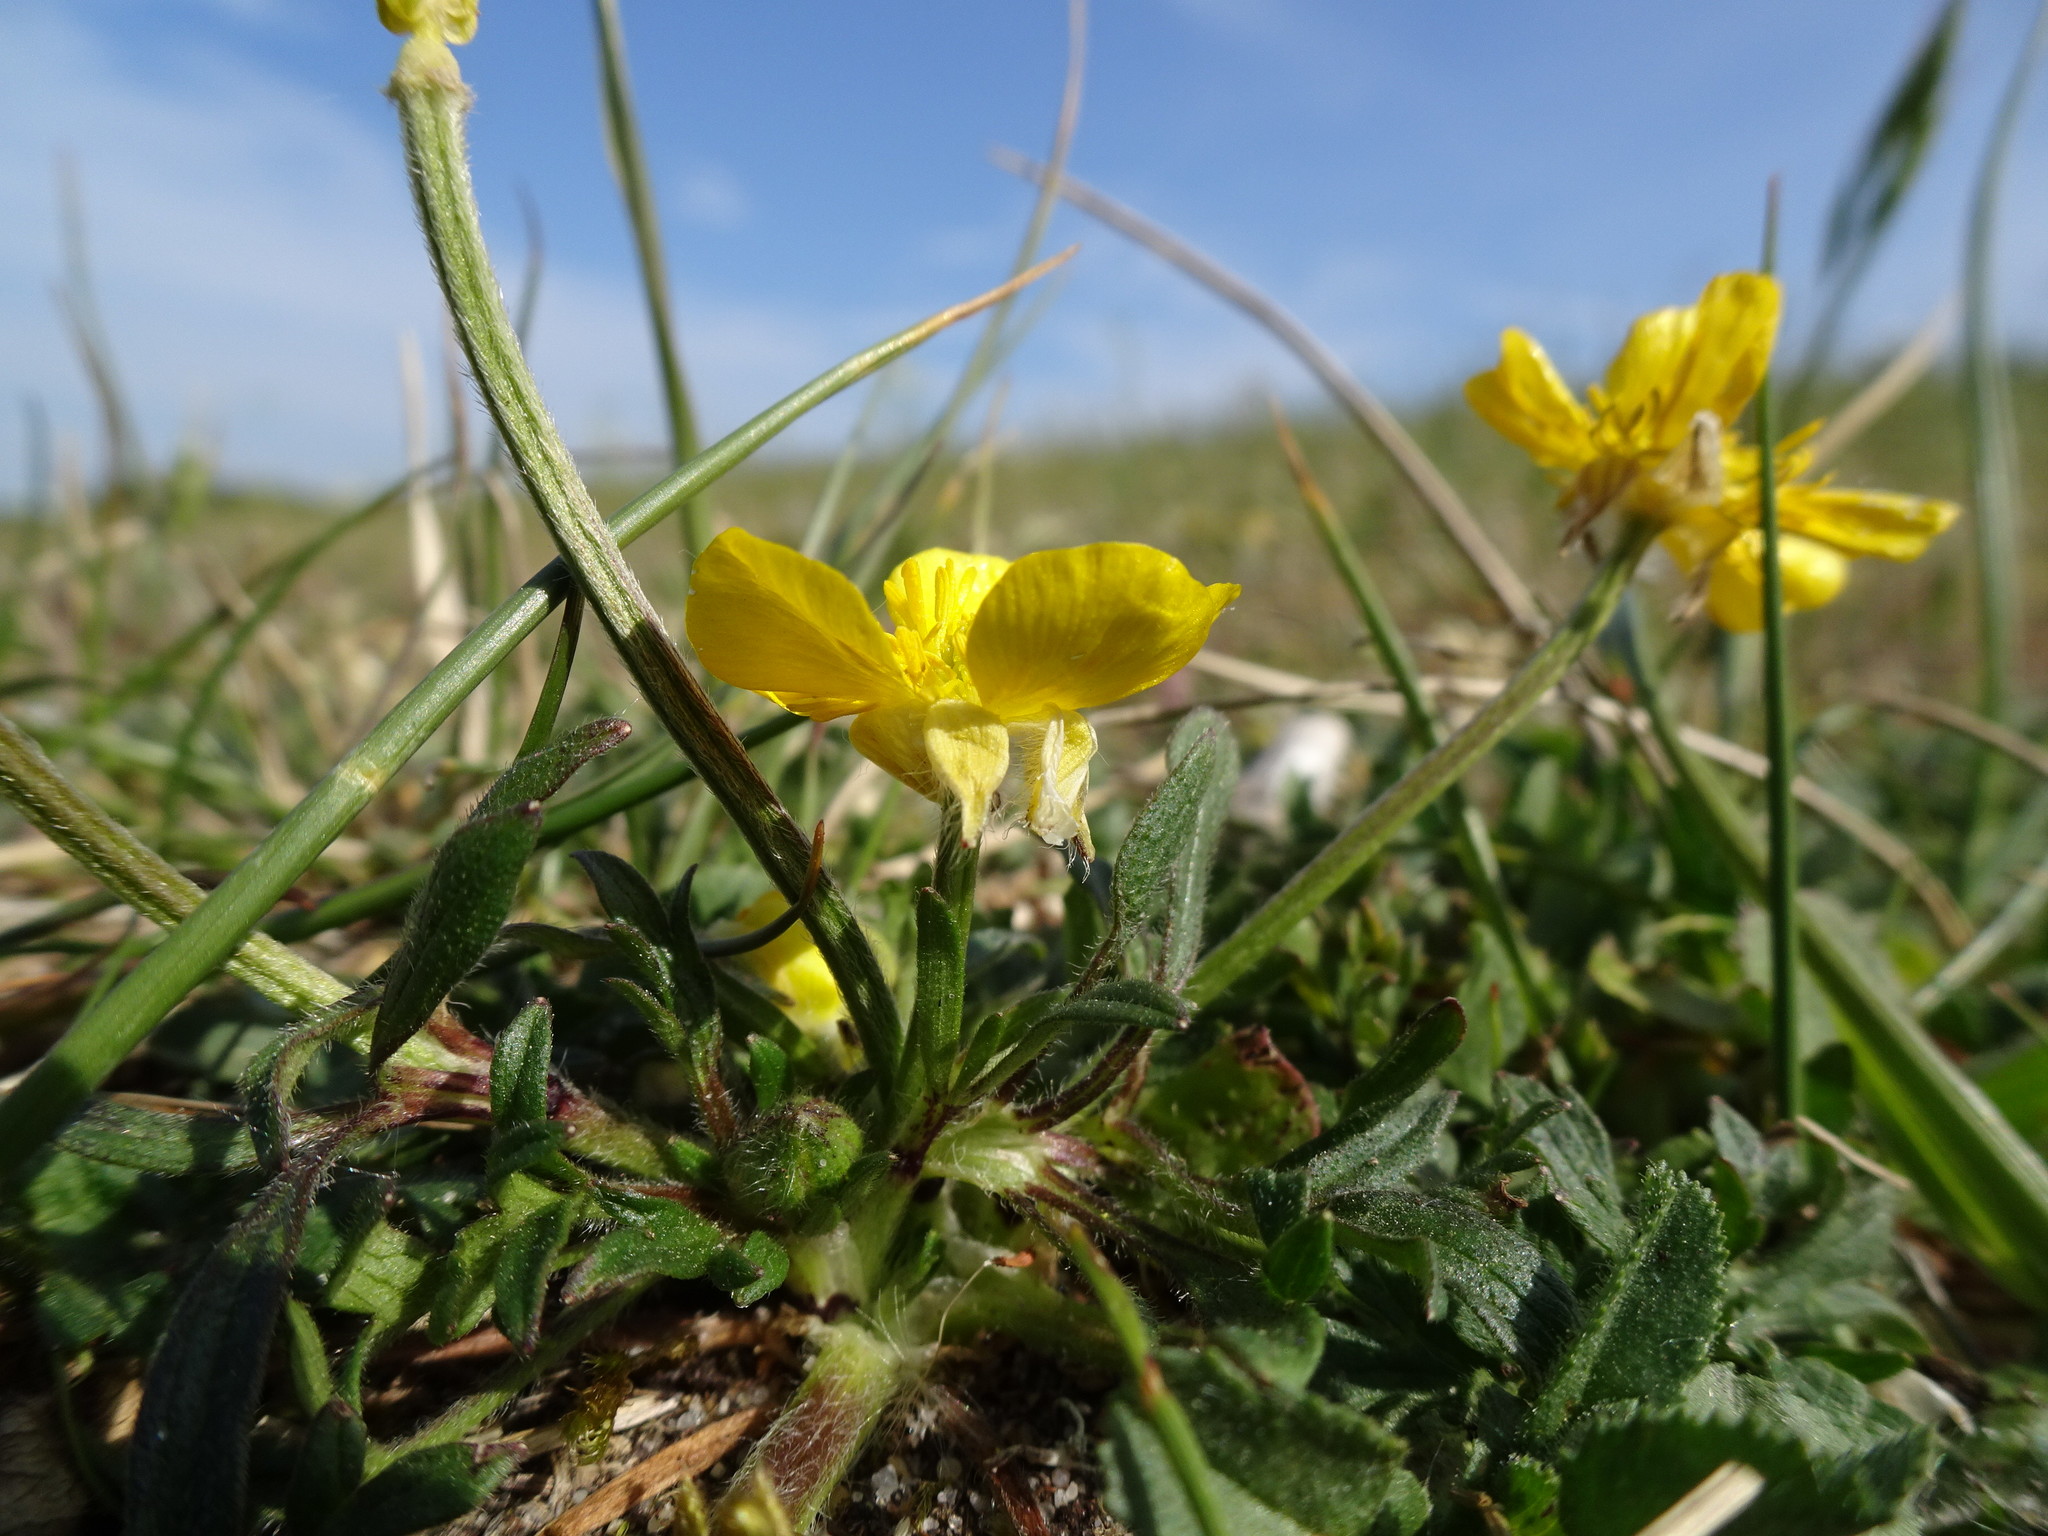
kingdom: Plantae
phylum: Tracheophyta
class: Magnoliopsida
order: Ranunculales
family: Ranunculaceae
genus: Ranunculus
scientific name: Ranunculus bulbosus
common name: Bulbous buttercup
